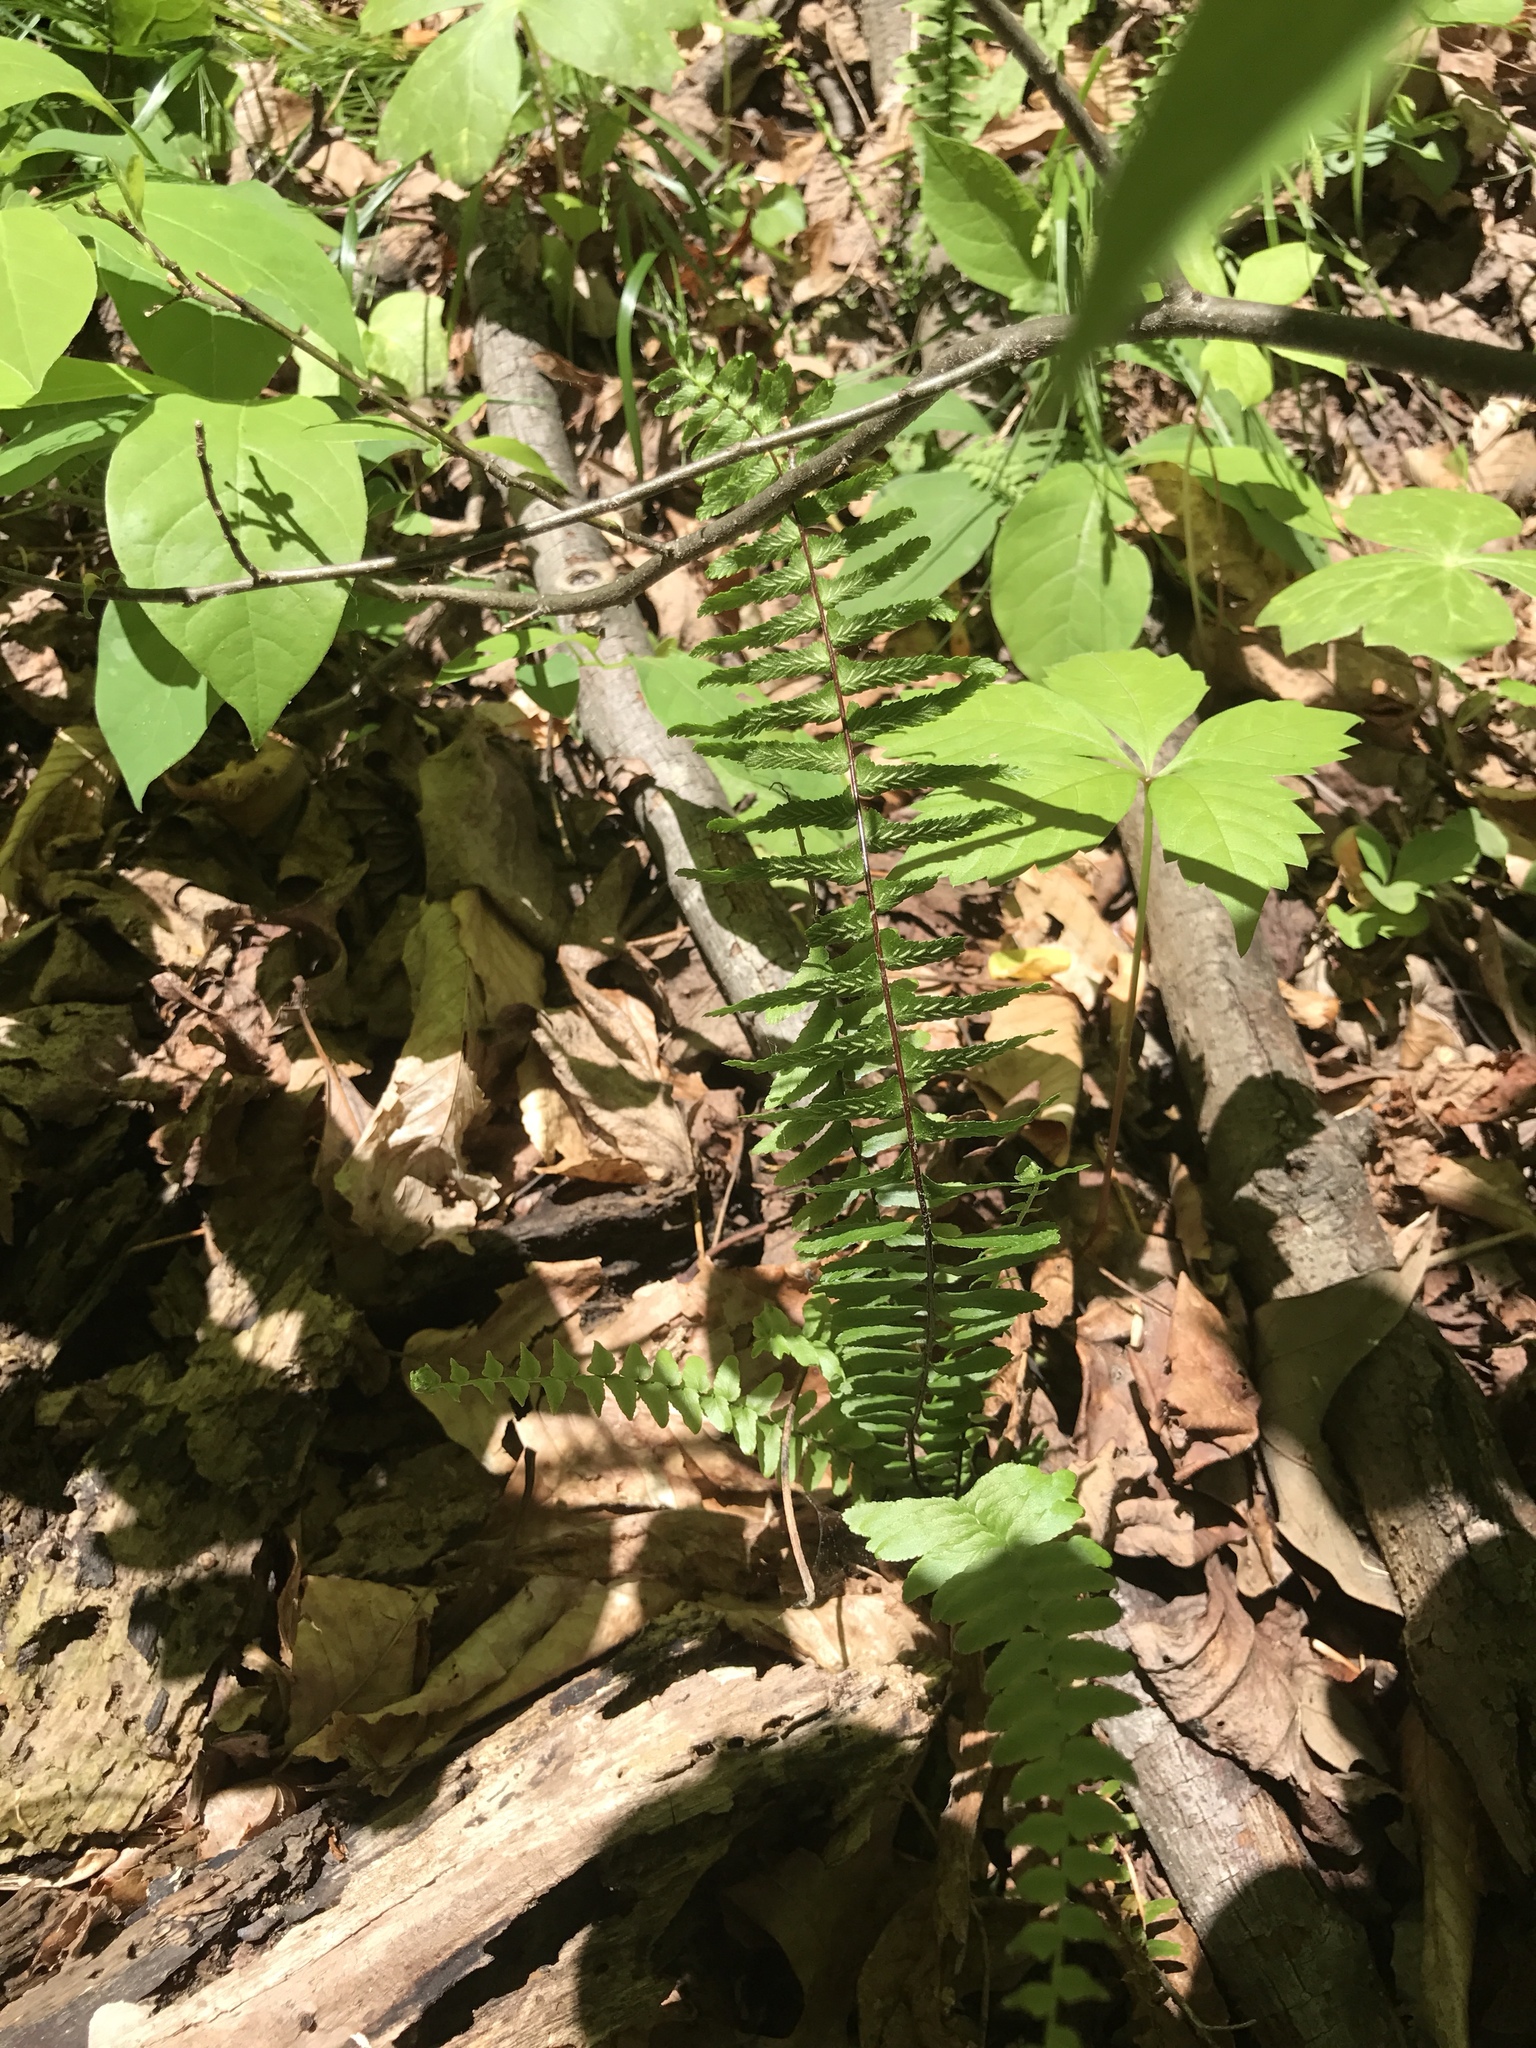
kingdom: Plantae
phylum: Tracheophyta
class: Polypodiopsida
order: Polypodiales
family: Aspleniaceae
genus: Asplenium
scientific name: Asplenium platyneuron
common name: Ebony spleenwort
